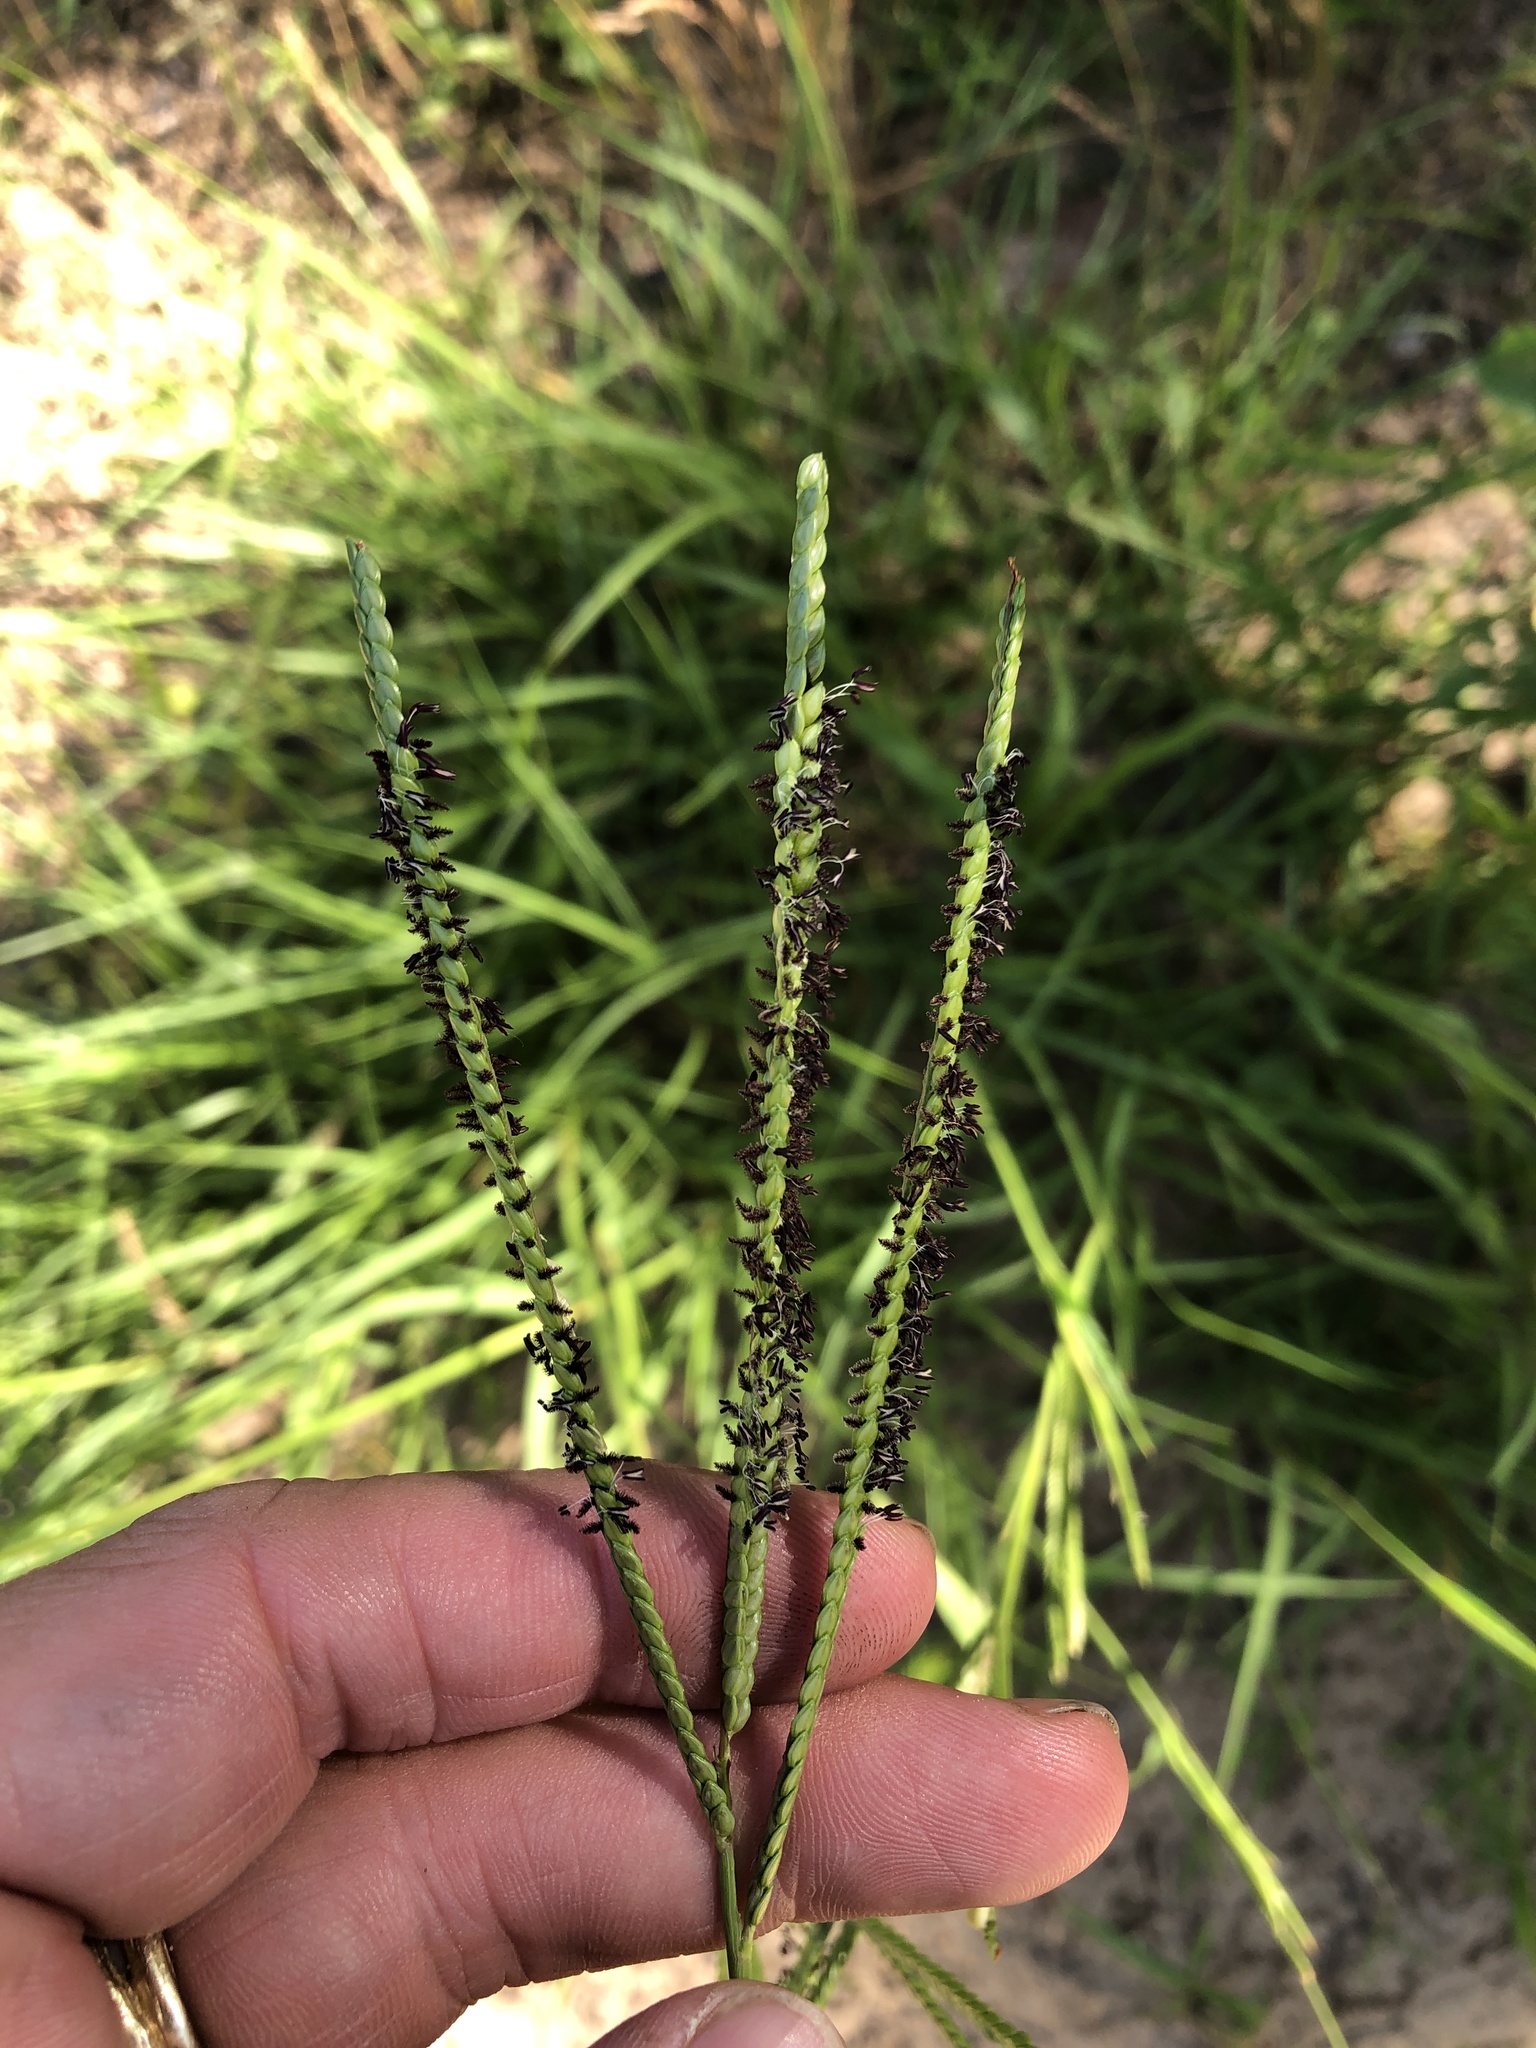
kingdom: Plantae
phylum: Tracheophyta
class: Liliopsida
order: Poales
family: Poaceae
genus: Paspalum
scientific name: Paspalum notatum
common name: Bahiagrass
